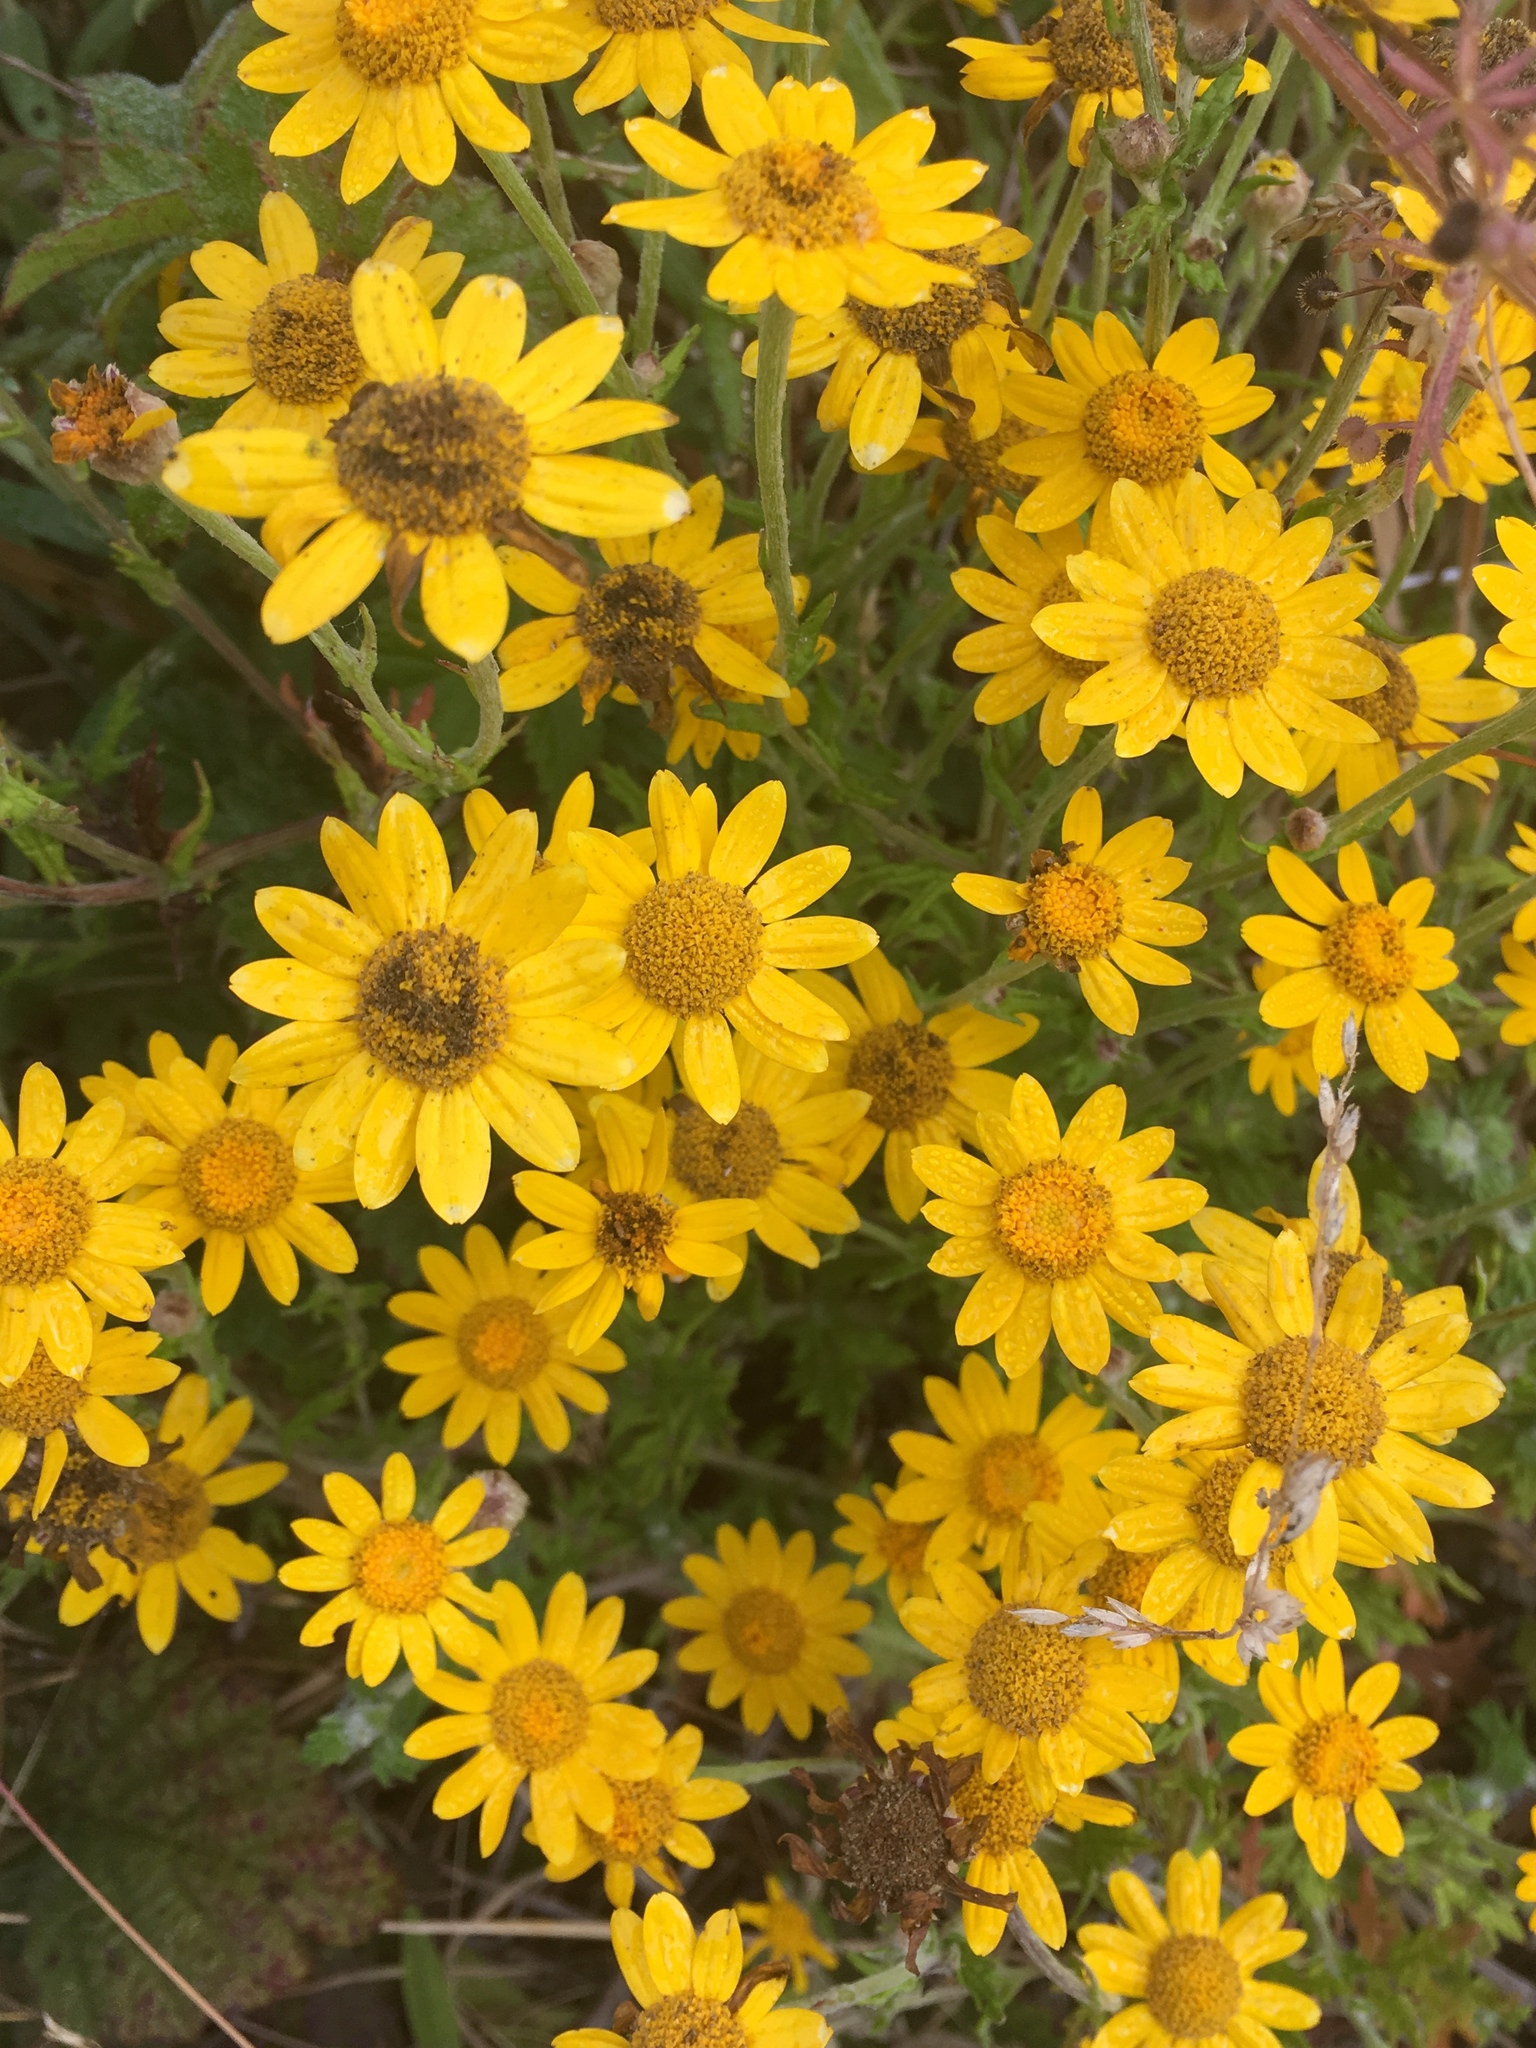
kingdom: Plantae
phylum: Tracheophyta
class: Magnoliopsida
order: Asterales
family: Asteraceae
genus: Eriophyllum
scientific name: Eriophyllum lanatum
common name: Common woolly-sunflower
